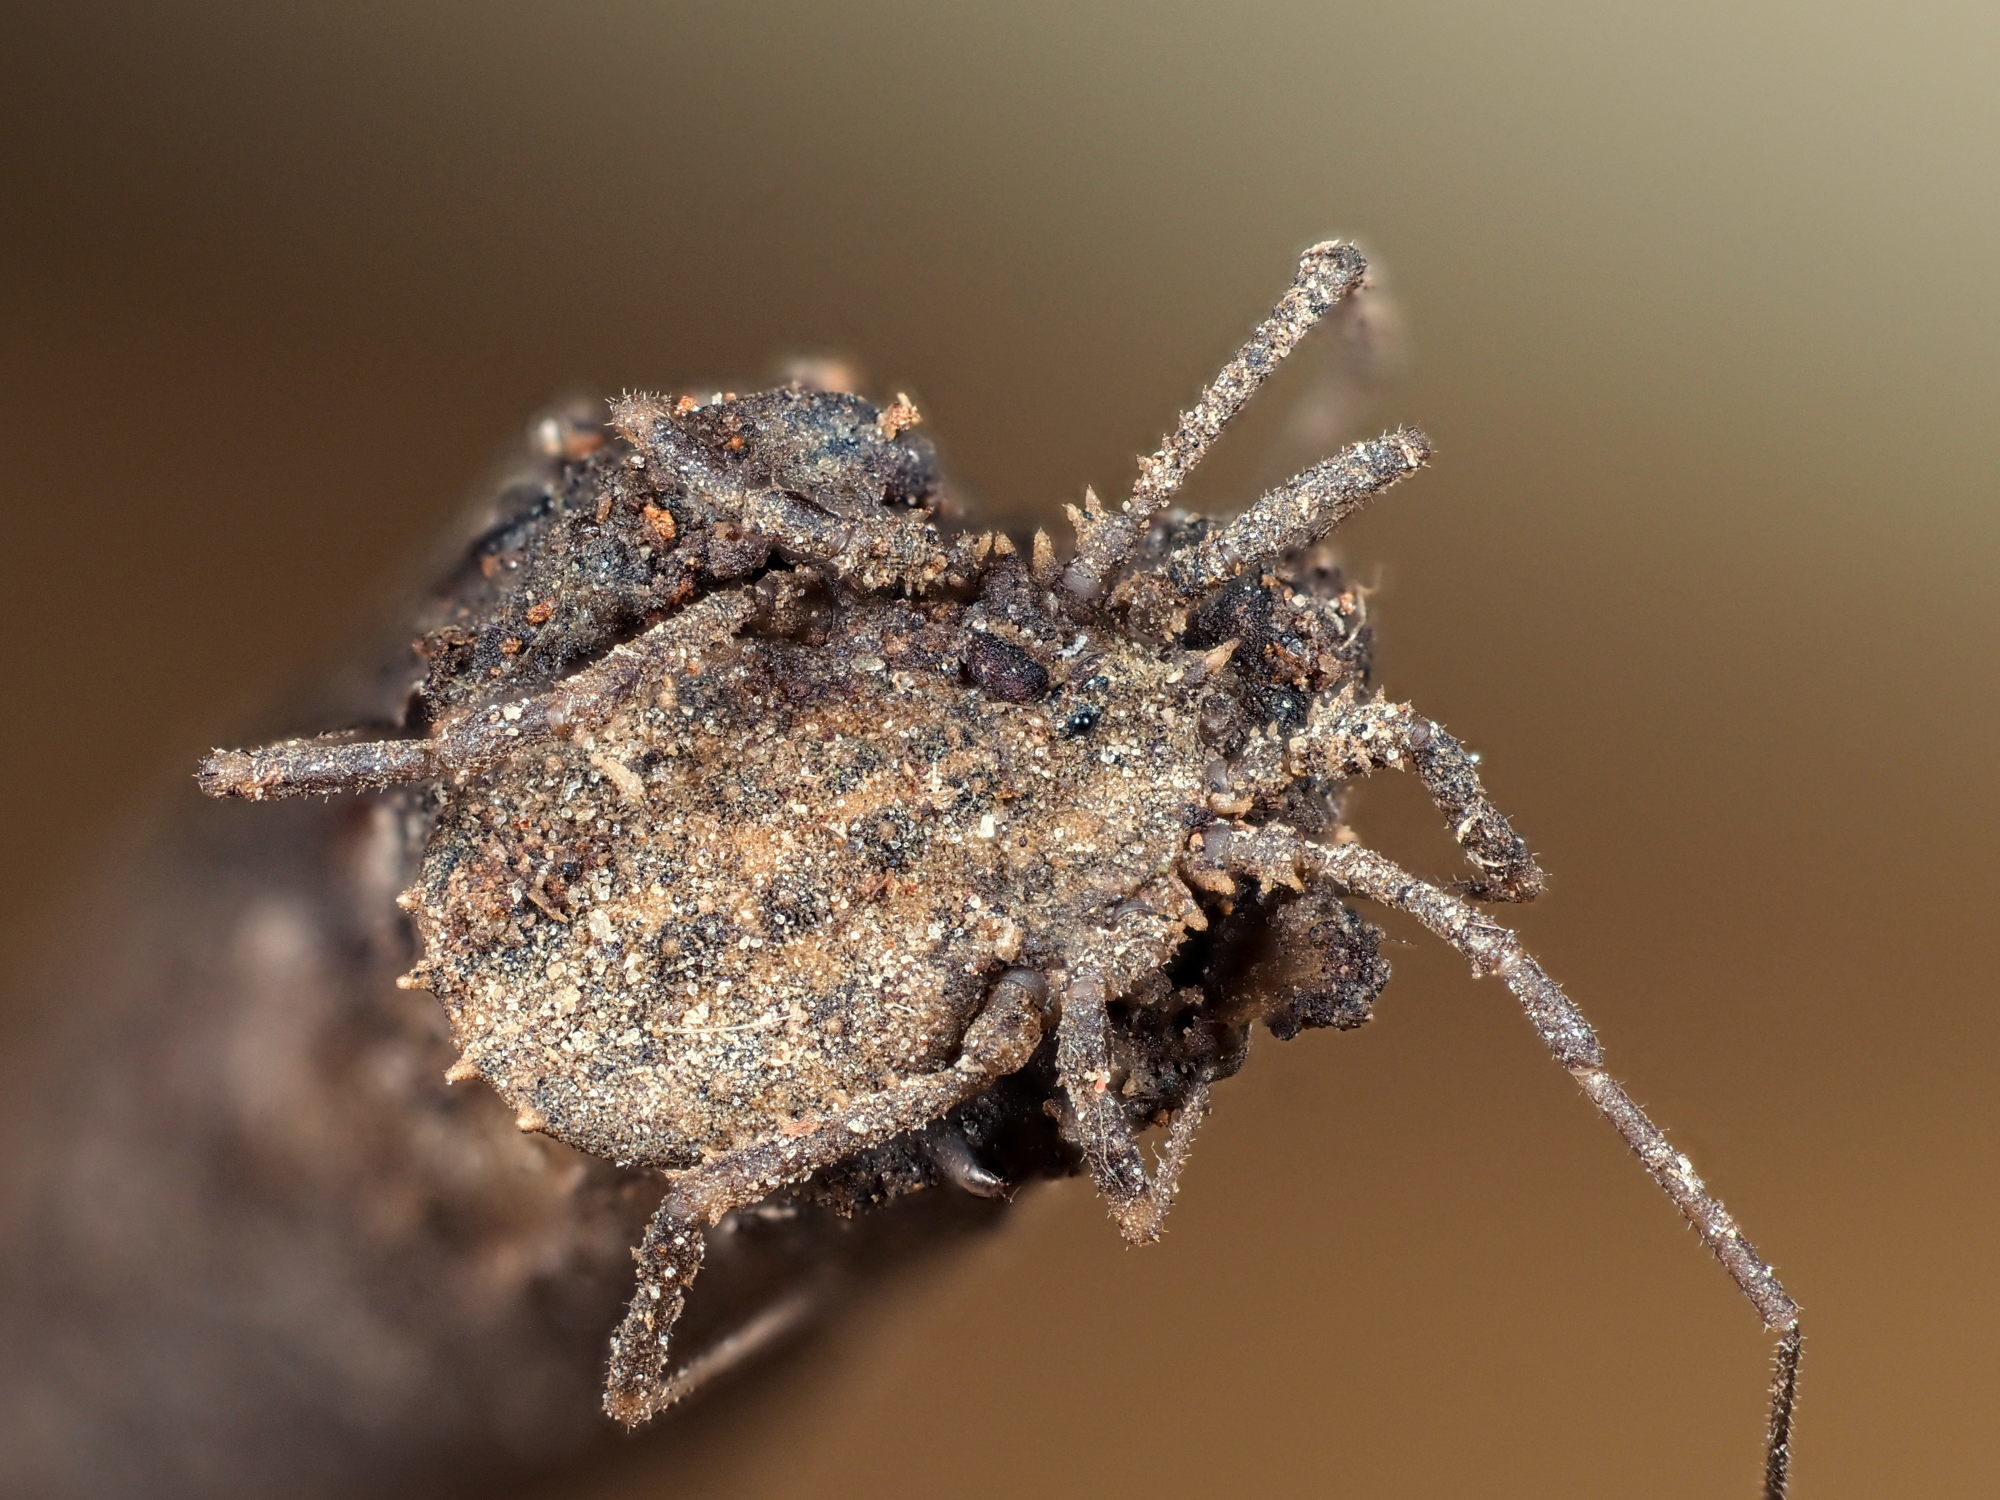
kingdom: Animalia
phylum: Arthropoda
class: Arachnida
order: Opiliones
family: Sclerosomatidae
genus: Homalenotus
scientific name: Homalenotus quadridentatus
